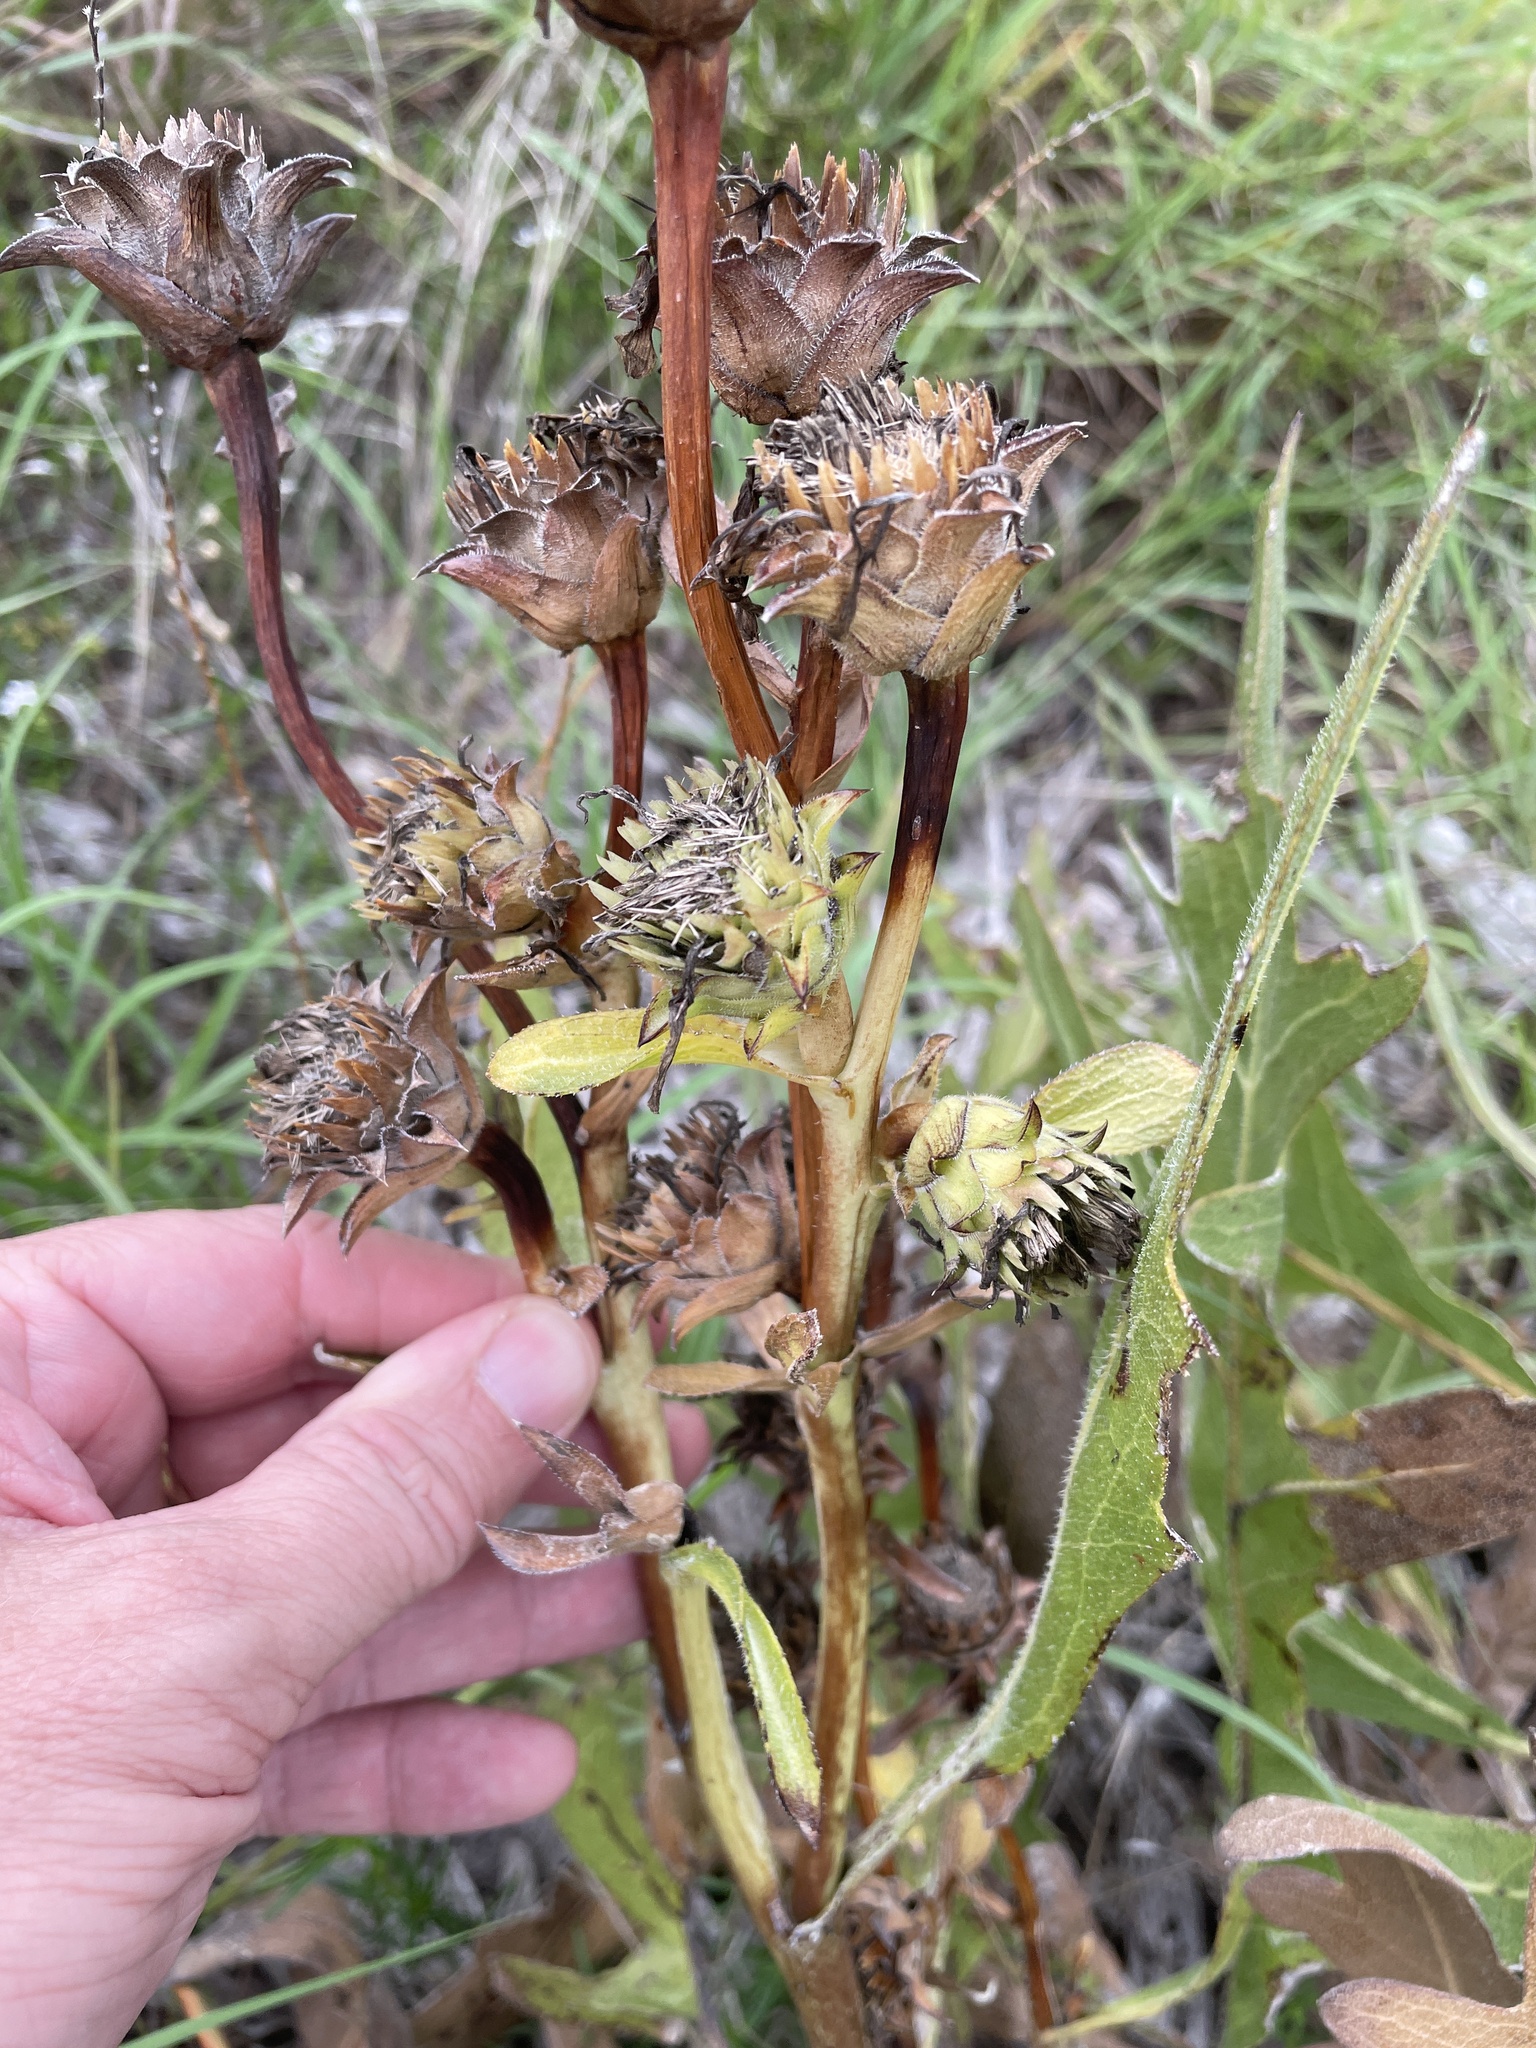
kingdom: Plantae
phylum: Tracheophyta
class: Magnoliopsida
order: Asterales
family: Asteraceae
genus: Silphium
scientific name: Silphium albiflorum
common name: White rosinweed
